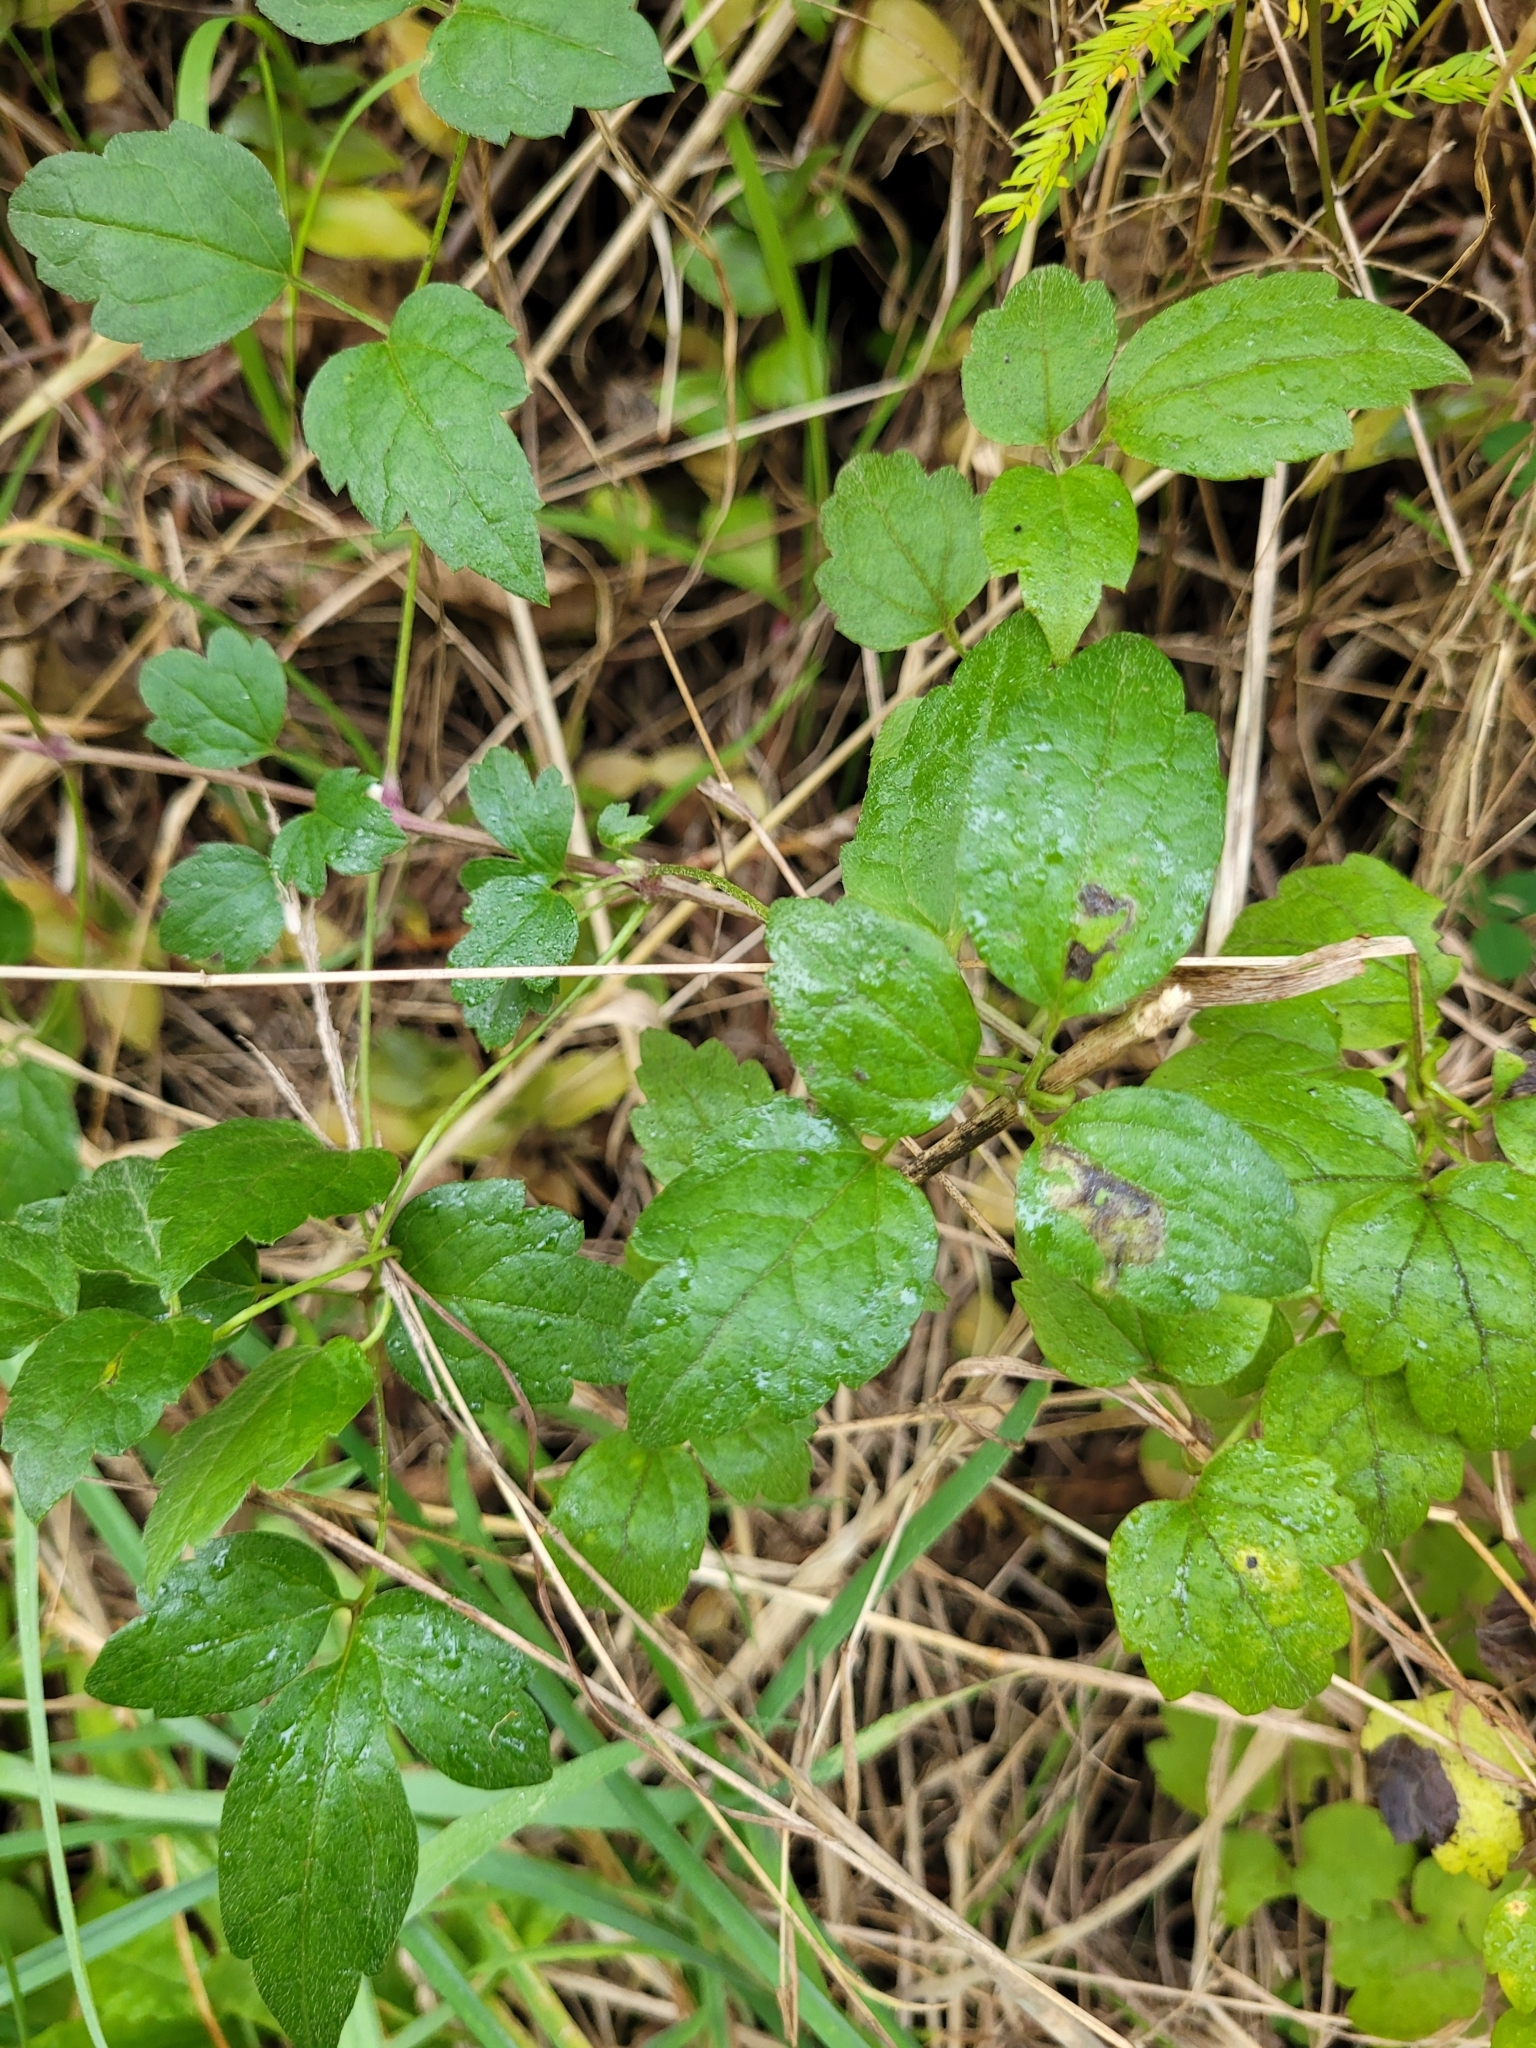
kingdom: Plantae
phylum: Tracheophyta
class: Magnoliopsida
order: Ranunculales
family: Ranunculaceae
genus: Clematis
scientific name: Clematis vitalba
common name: Evergreen clematis
